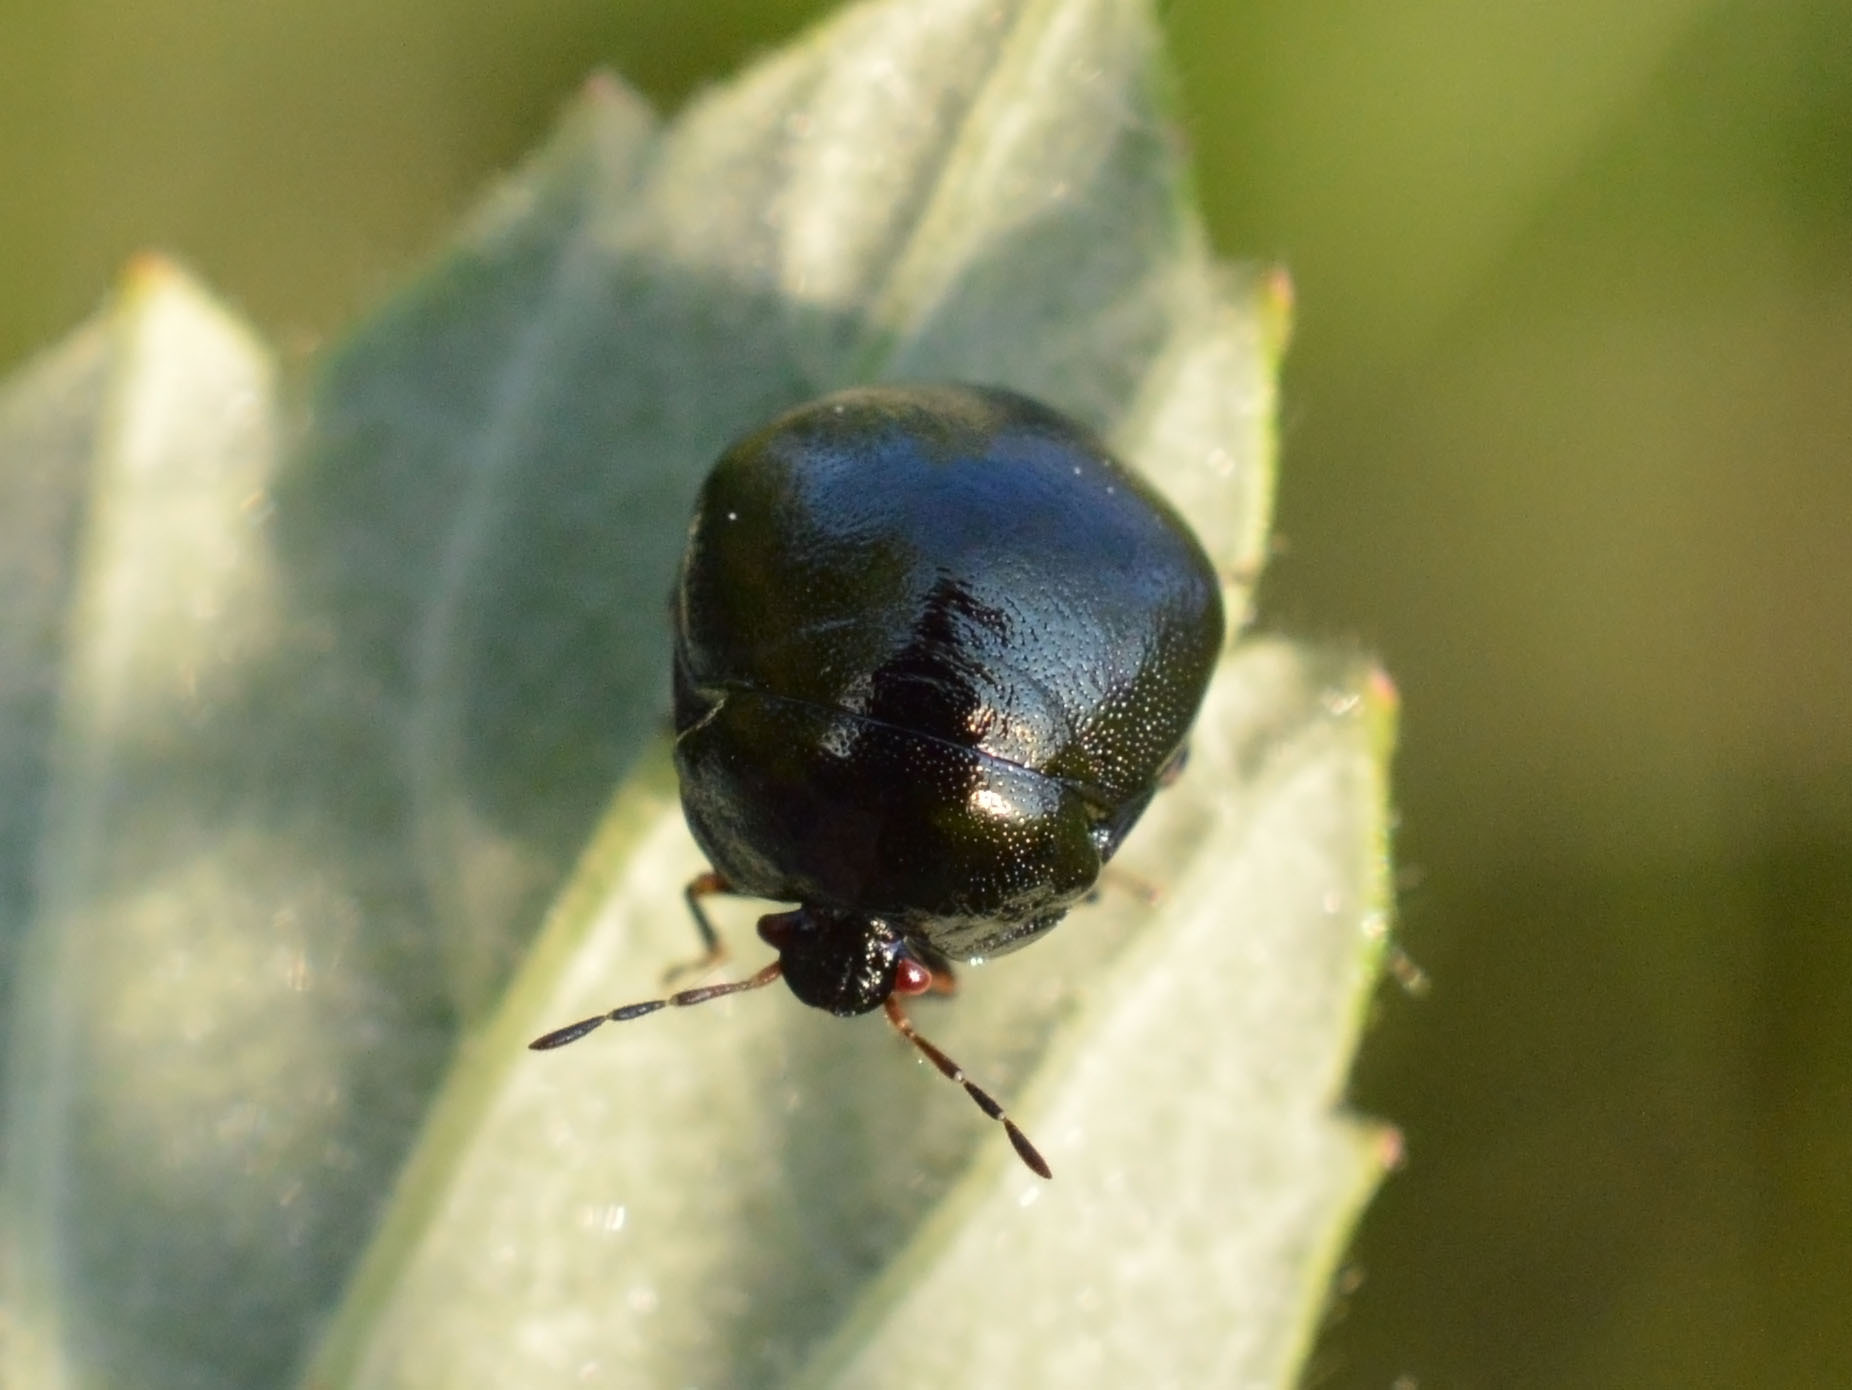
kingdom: Animalia
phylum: Arthropoda
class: Insecta
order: Hemiptera
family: Plataspidae
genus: Coptosoma
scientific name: Coptosoma scutellatum
